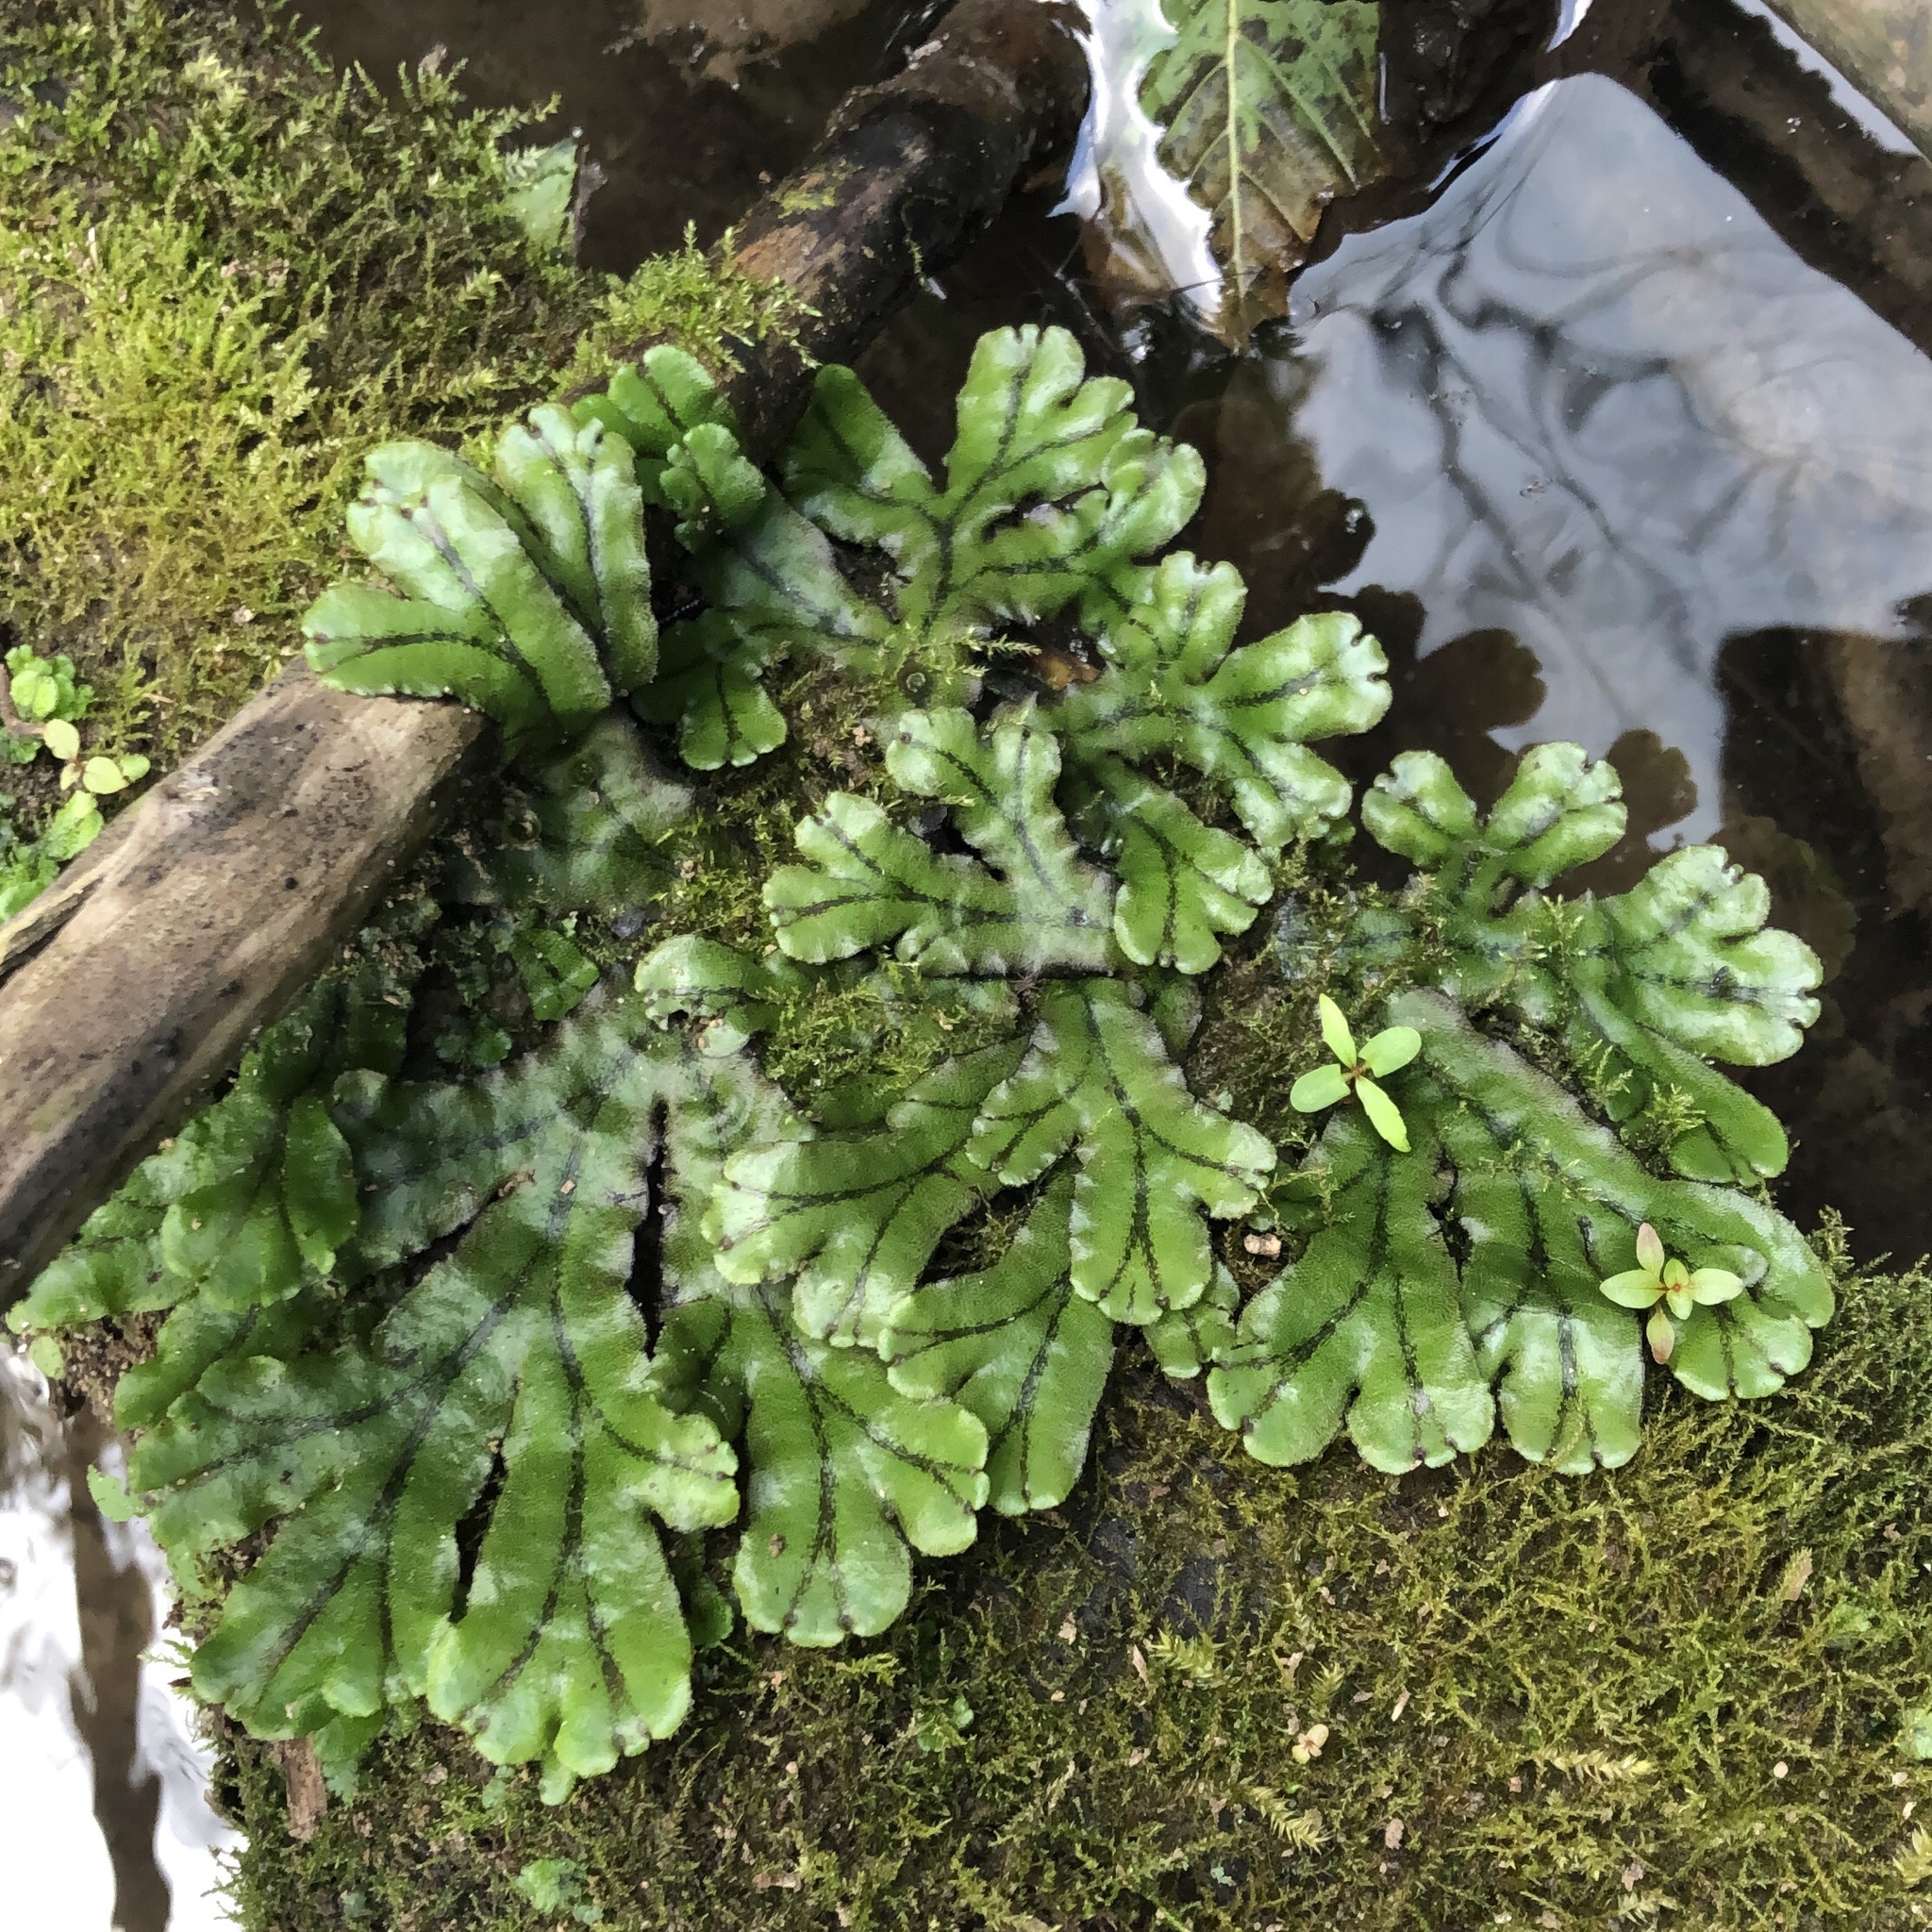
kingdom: Plantae
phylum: Marchantiophyta
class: Marchantiopsida
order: Marchantiales
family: Marchantiaceae
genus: Marchantia
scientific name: Marchantia polymorpha
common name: Common liverwort
